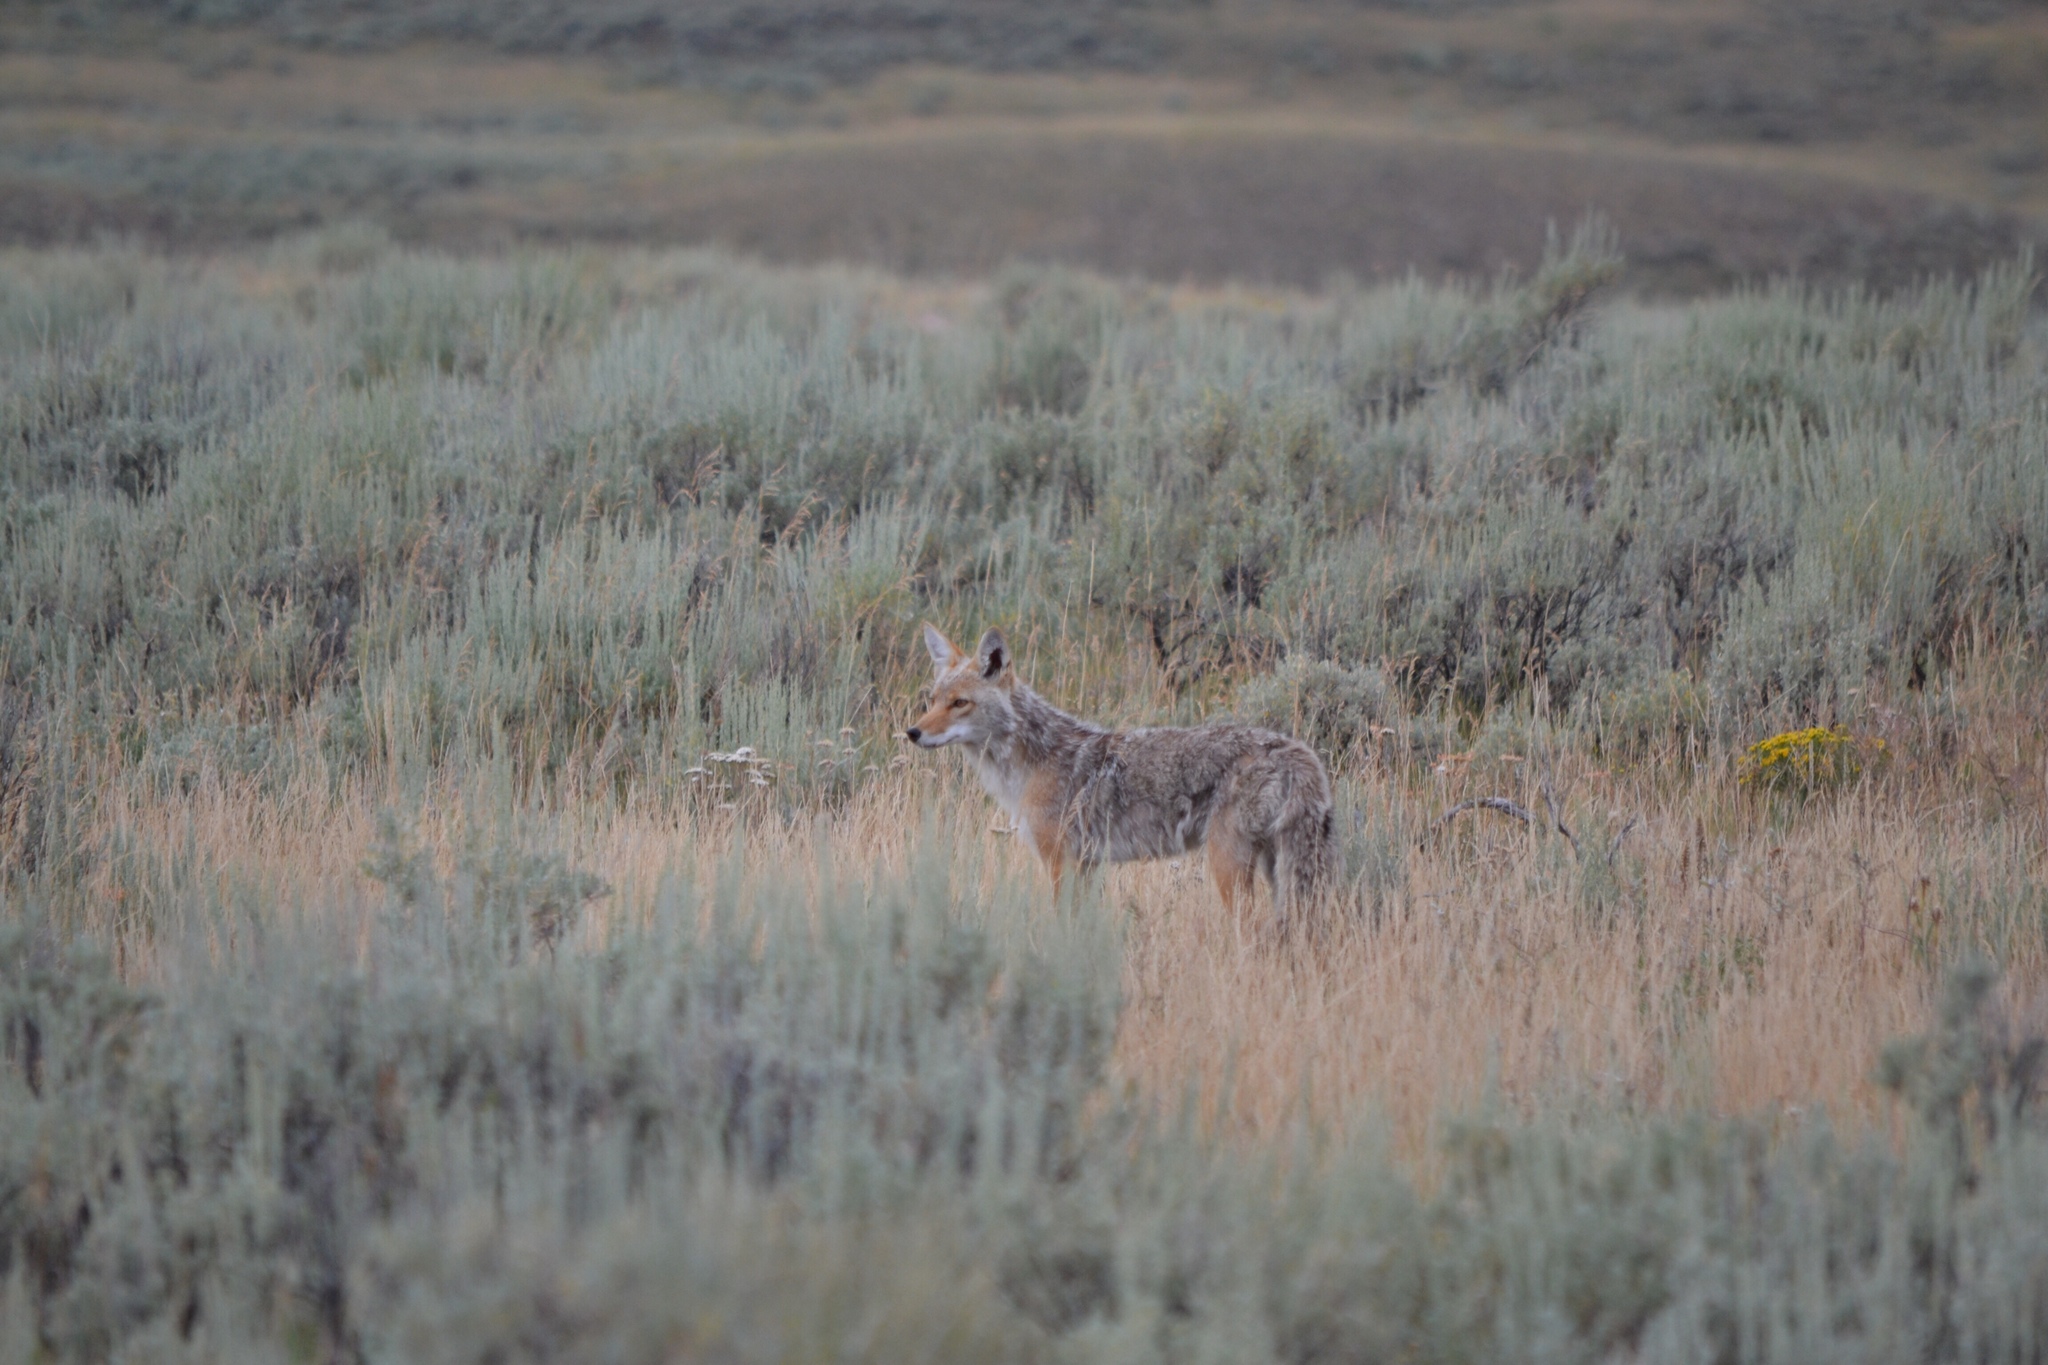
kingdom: Animalia
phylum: Chordata
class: Mammalia
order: Carnivora
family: Canidae
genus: Canis
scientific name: Canis latrans
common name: Coyote
